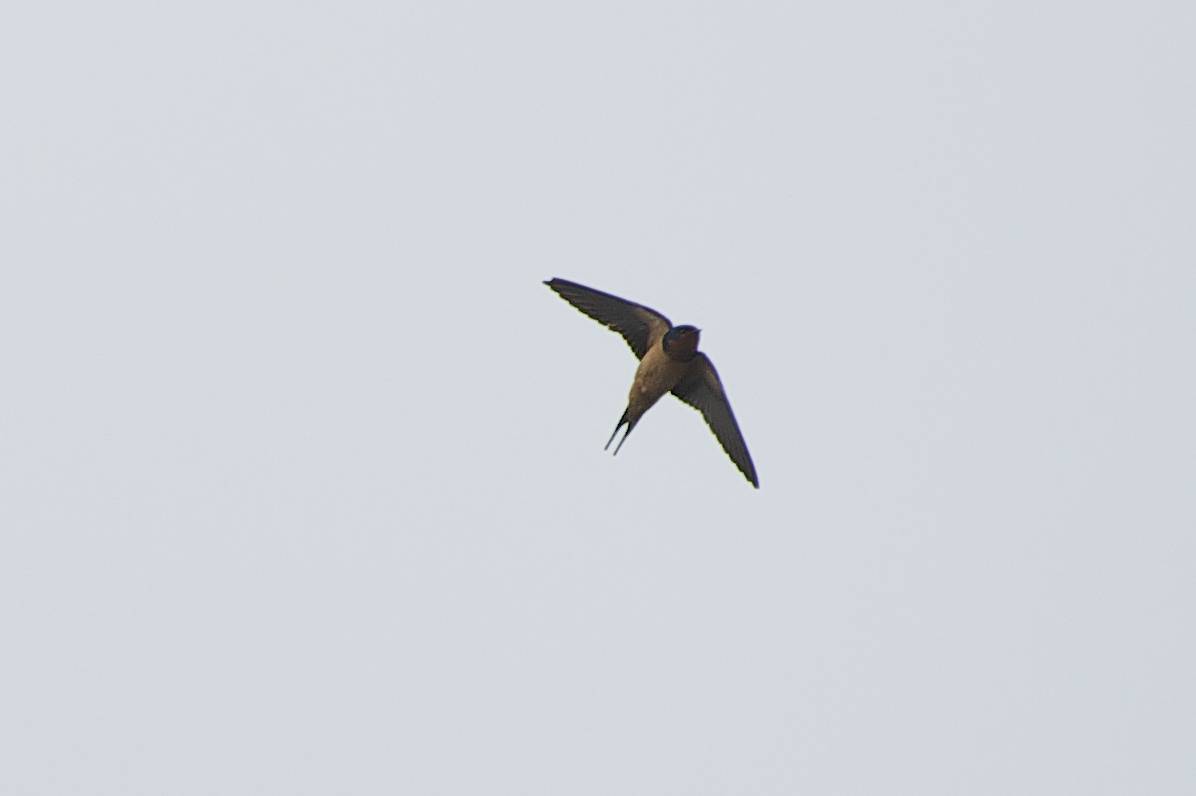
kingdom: Animalia
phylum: Chordata
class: Aves
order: Passeriformes
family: Hirundinidae
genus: Hirundo
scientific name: Hirundo rustica
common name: Barn swallow
